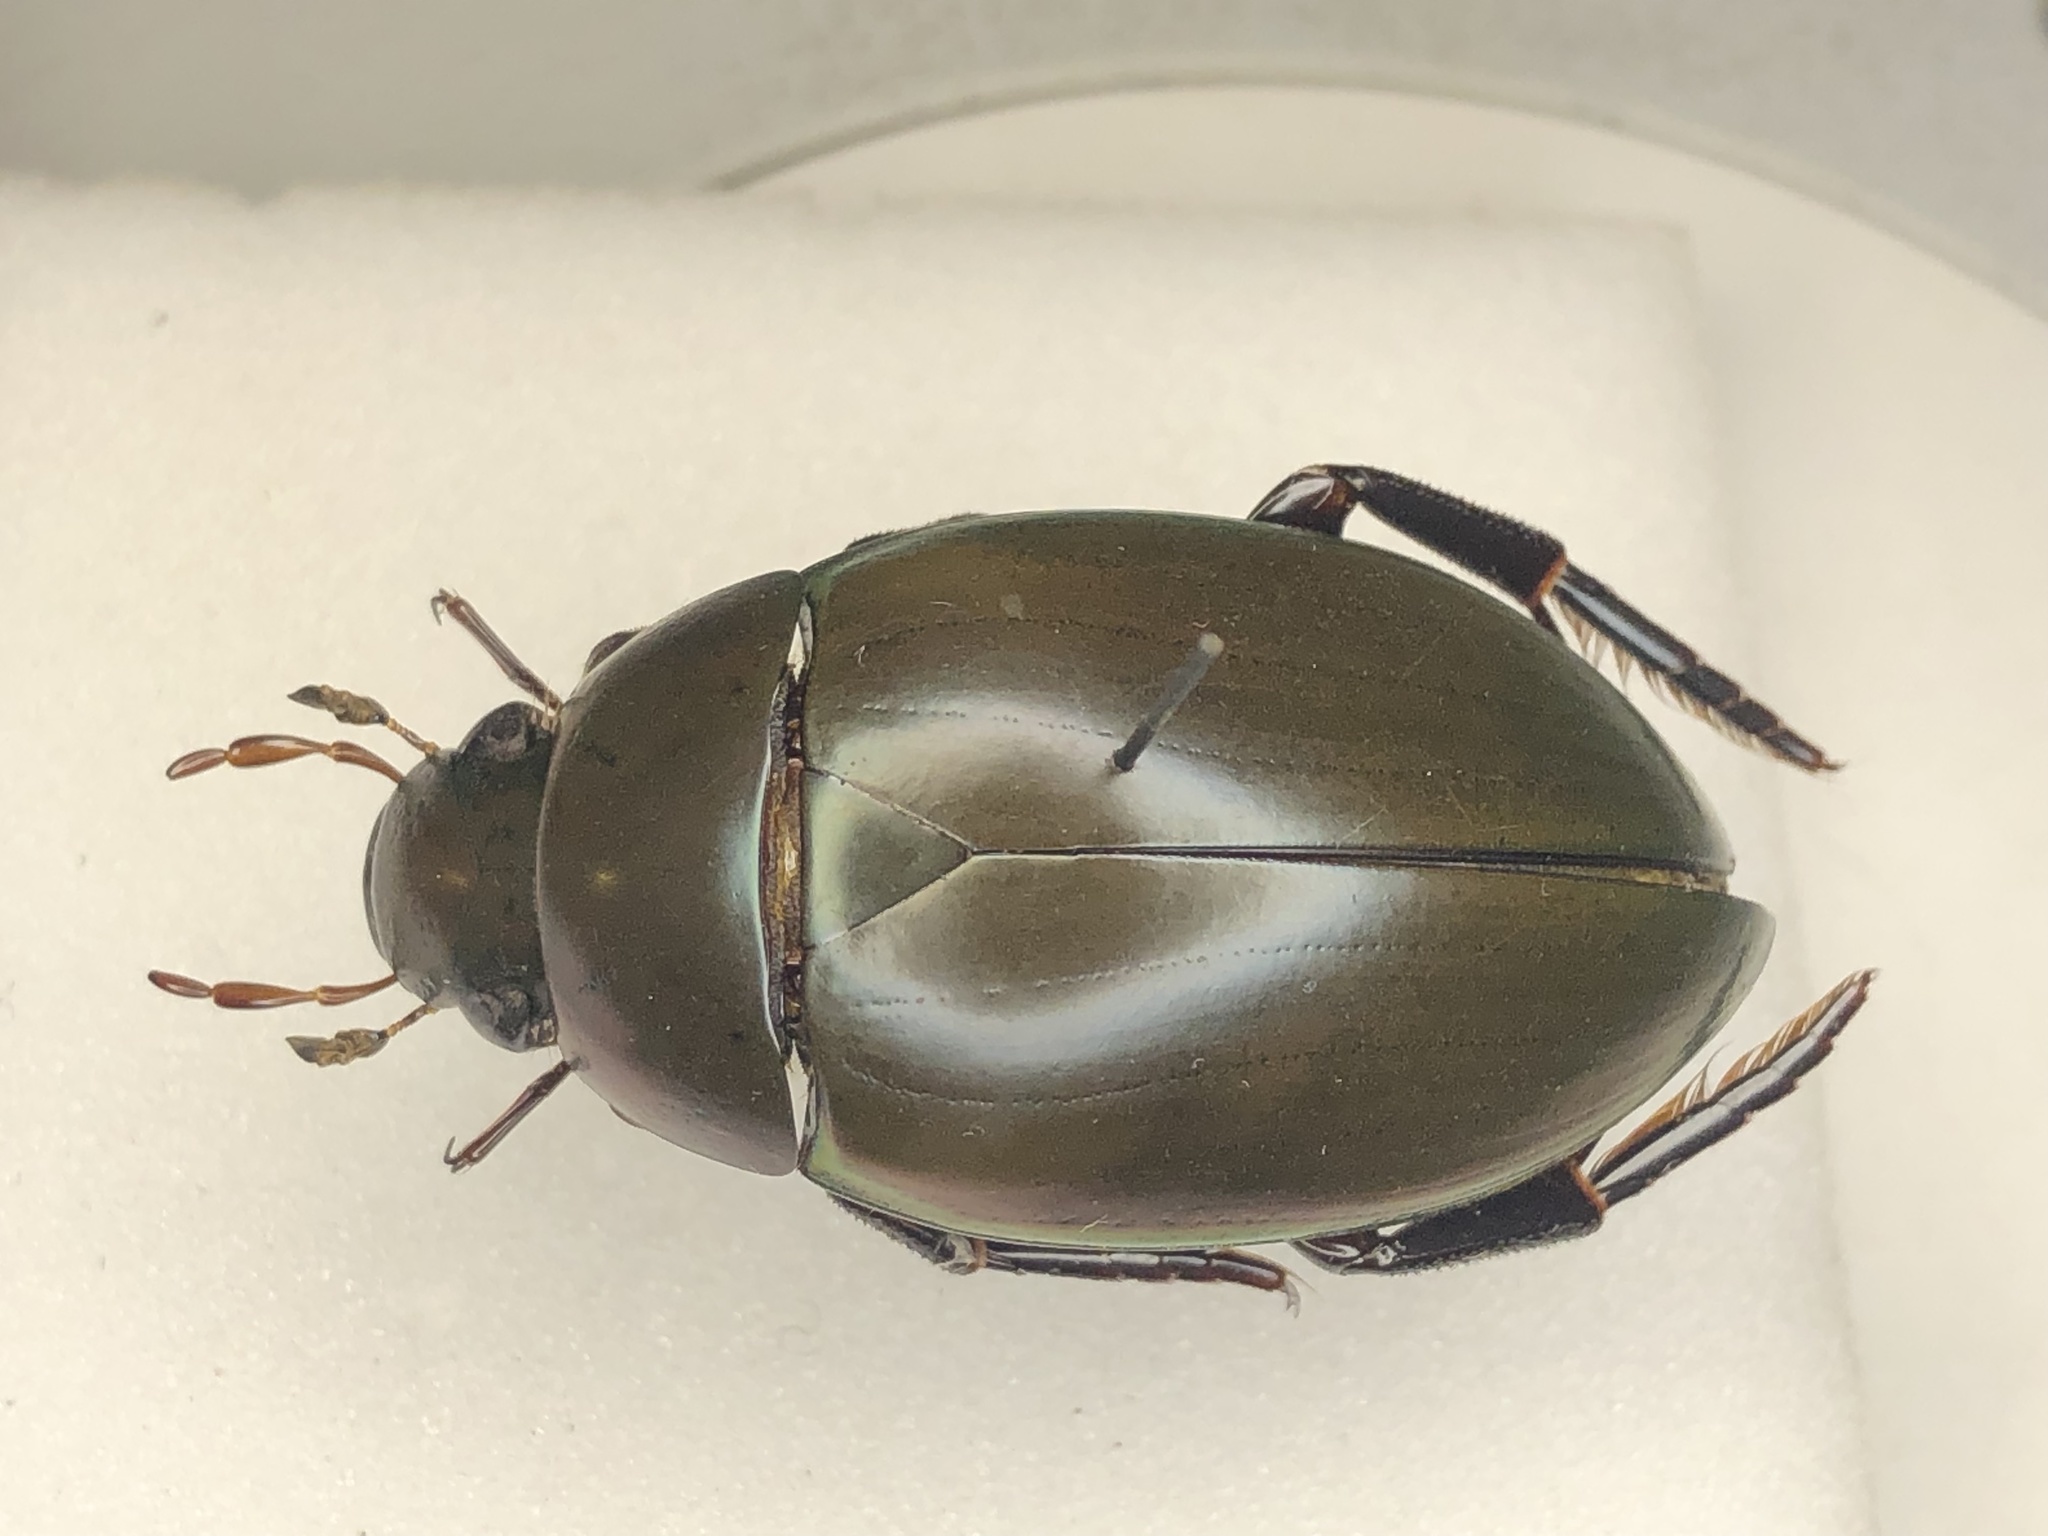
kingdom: Animalia
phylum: Arthropoda
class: Insecta
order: Coleoptera
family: Hydrophilidae
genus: Hydrophilus
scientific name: Hydrophilus ovatus
